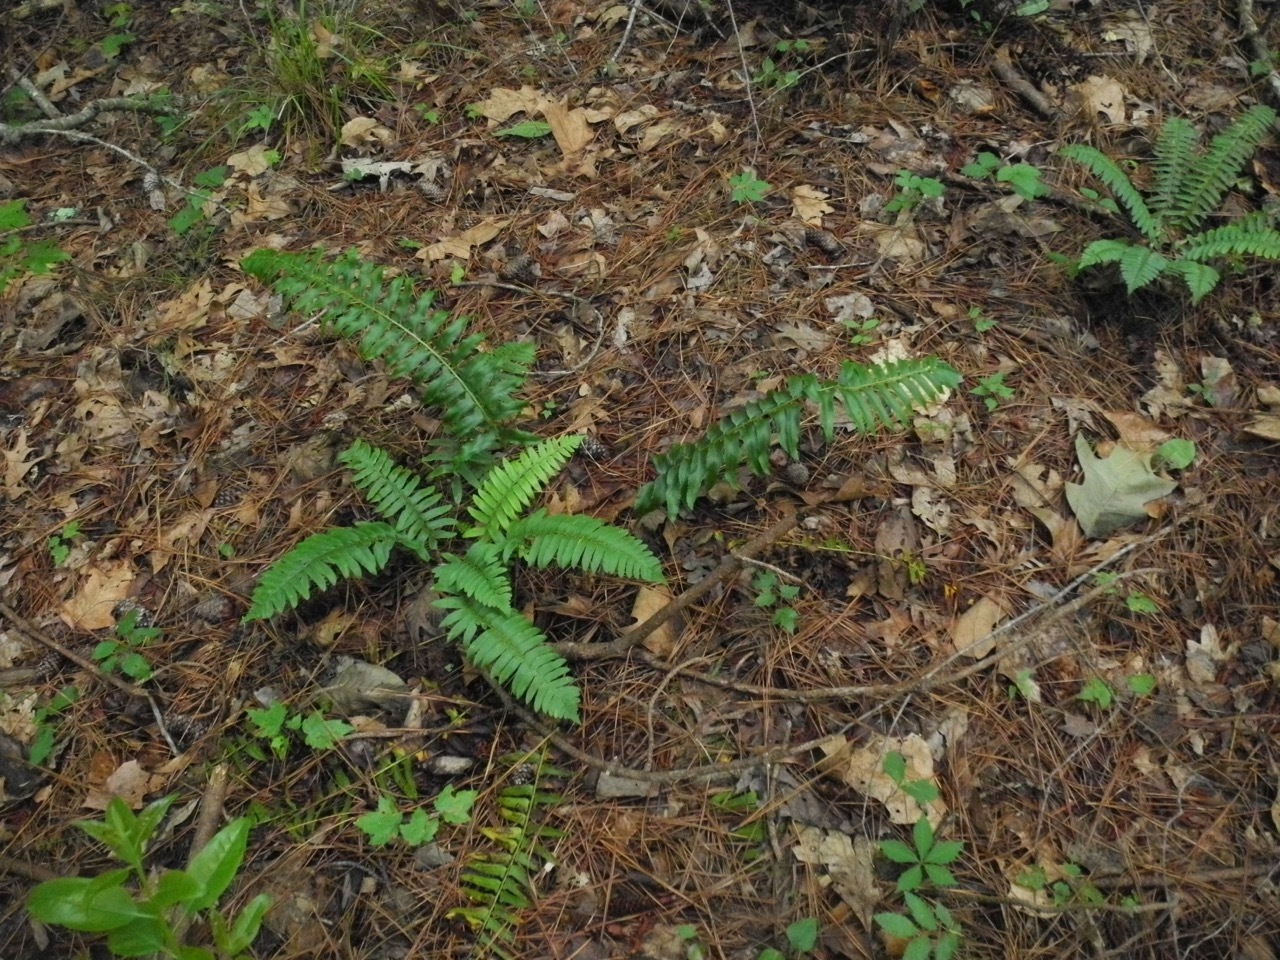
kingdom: Plantae
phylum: Tracheophyta
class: Polypodiopsida
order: Polypodiales
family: Dryopteridaceae
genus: Polystichum
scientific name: Polystichum acrostichoides
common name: Christmas fern
